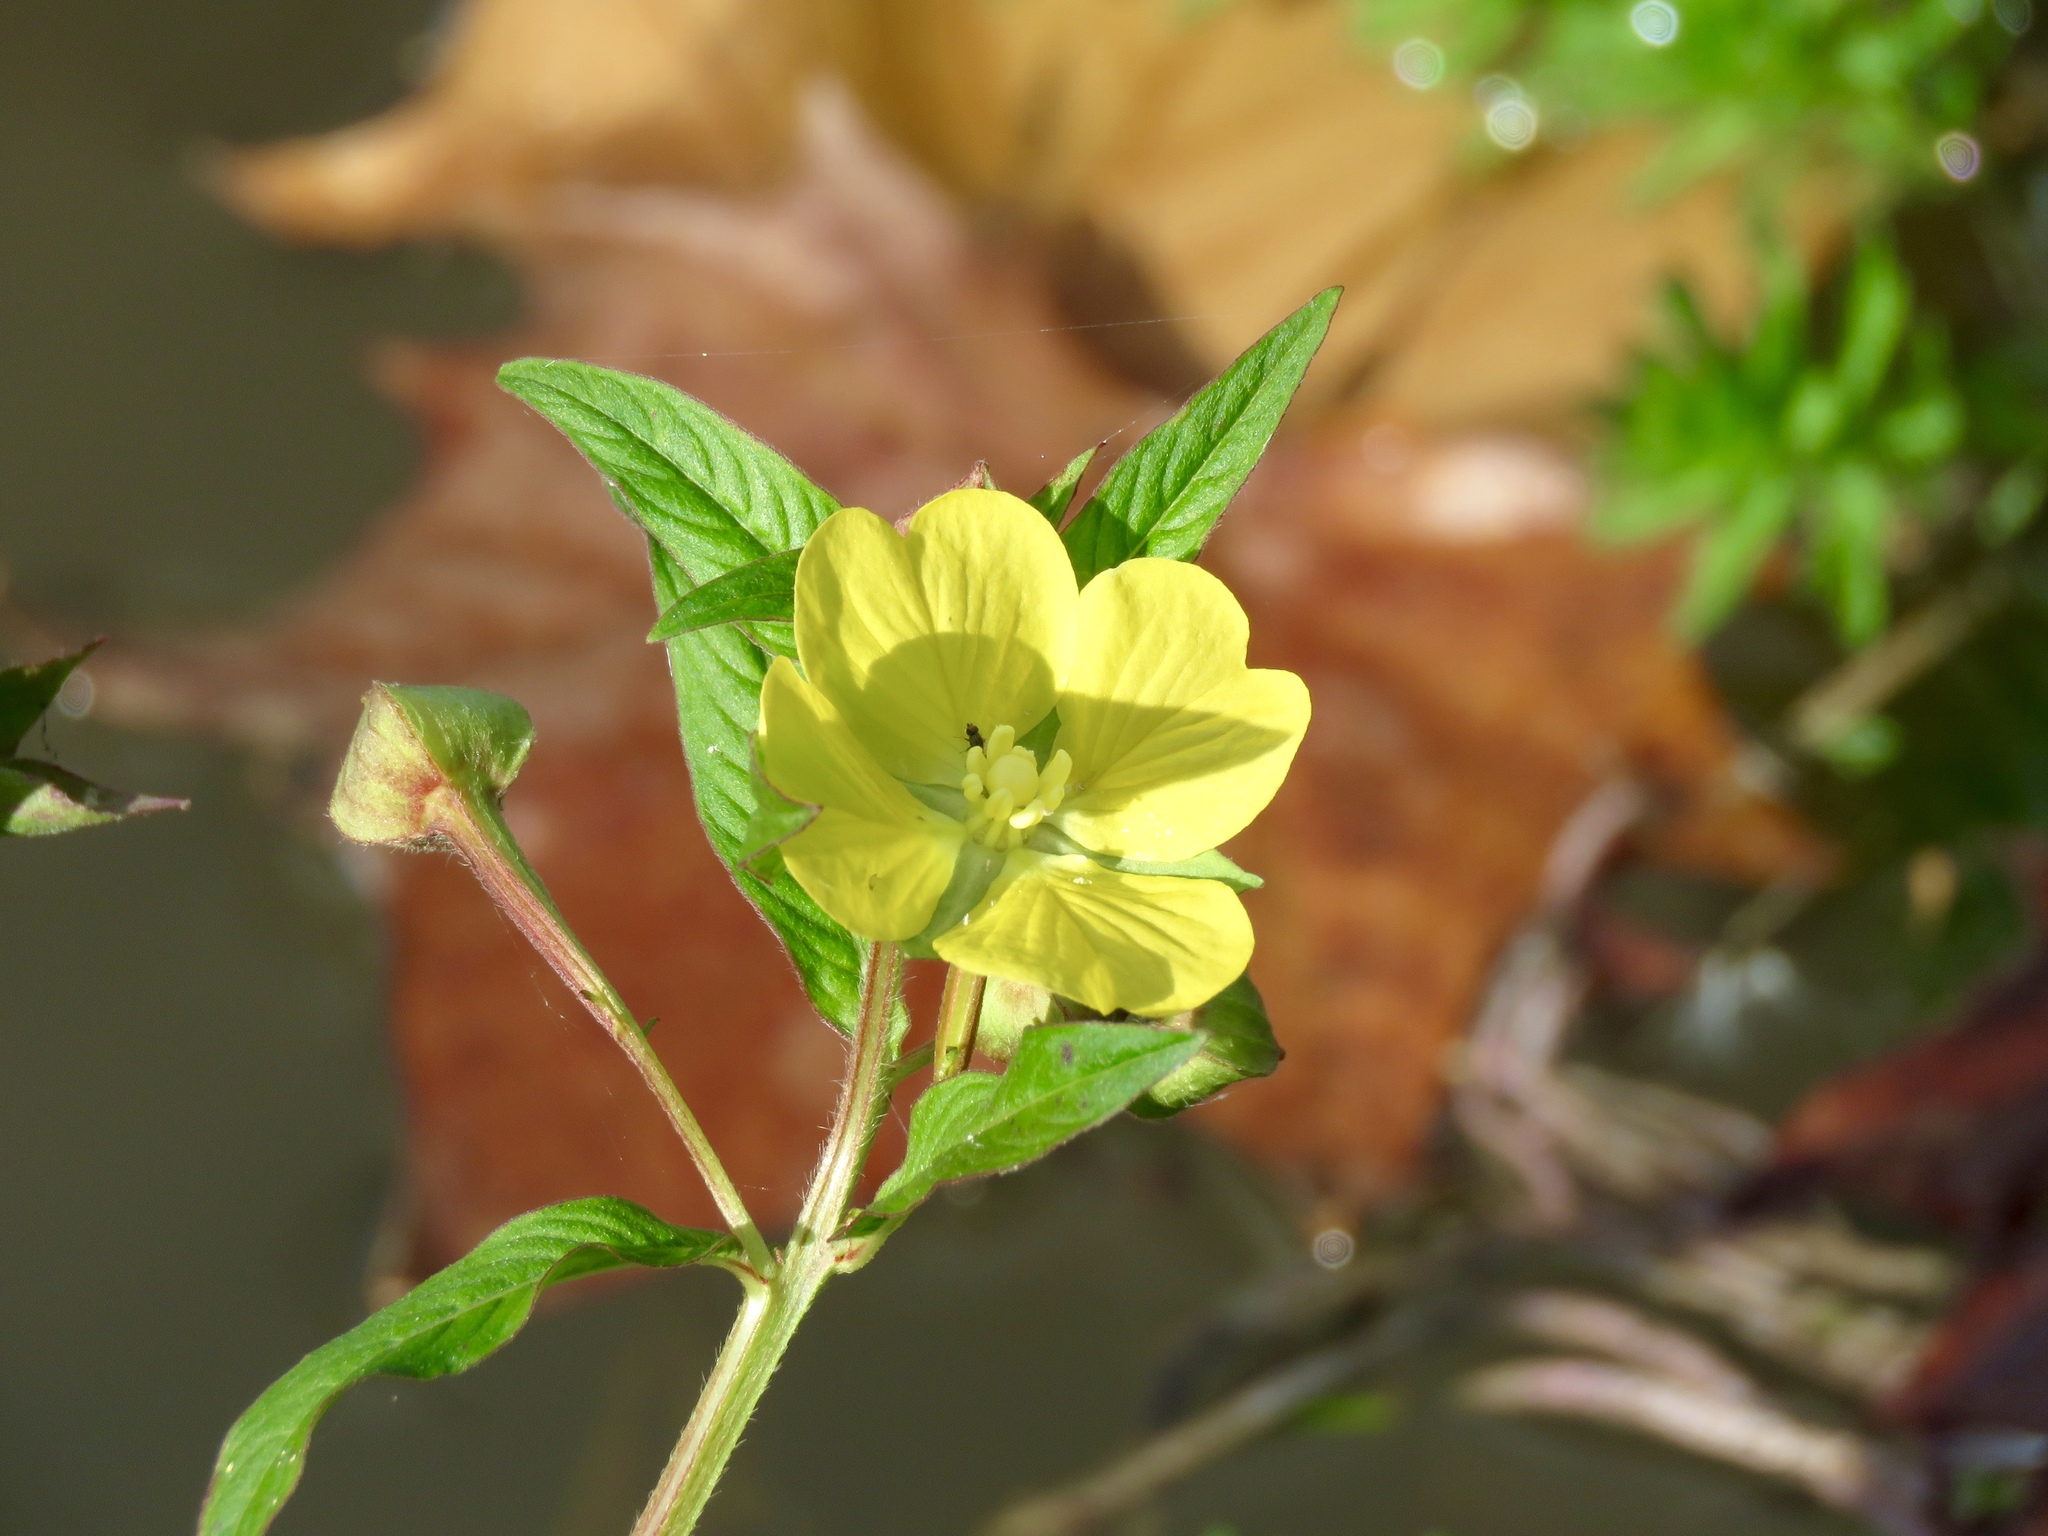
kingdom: Plantae
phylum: Tracheophyta
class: Magnoliopsida
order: Myrtales
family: Onagraceae
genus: Ludwigia
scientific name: Ludwigia octovalvis
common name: Water-primrose
